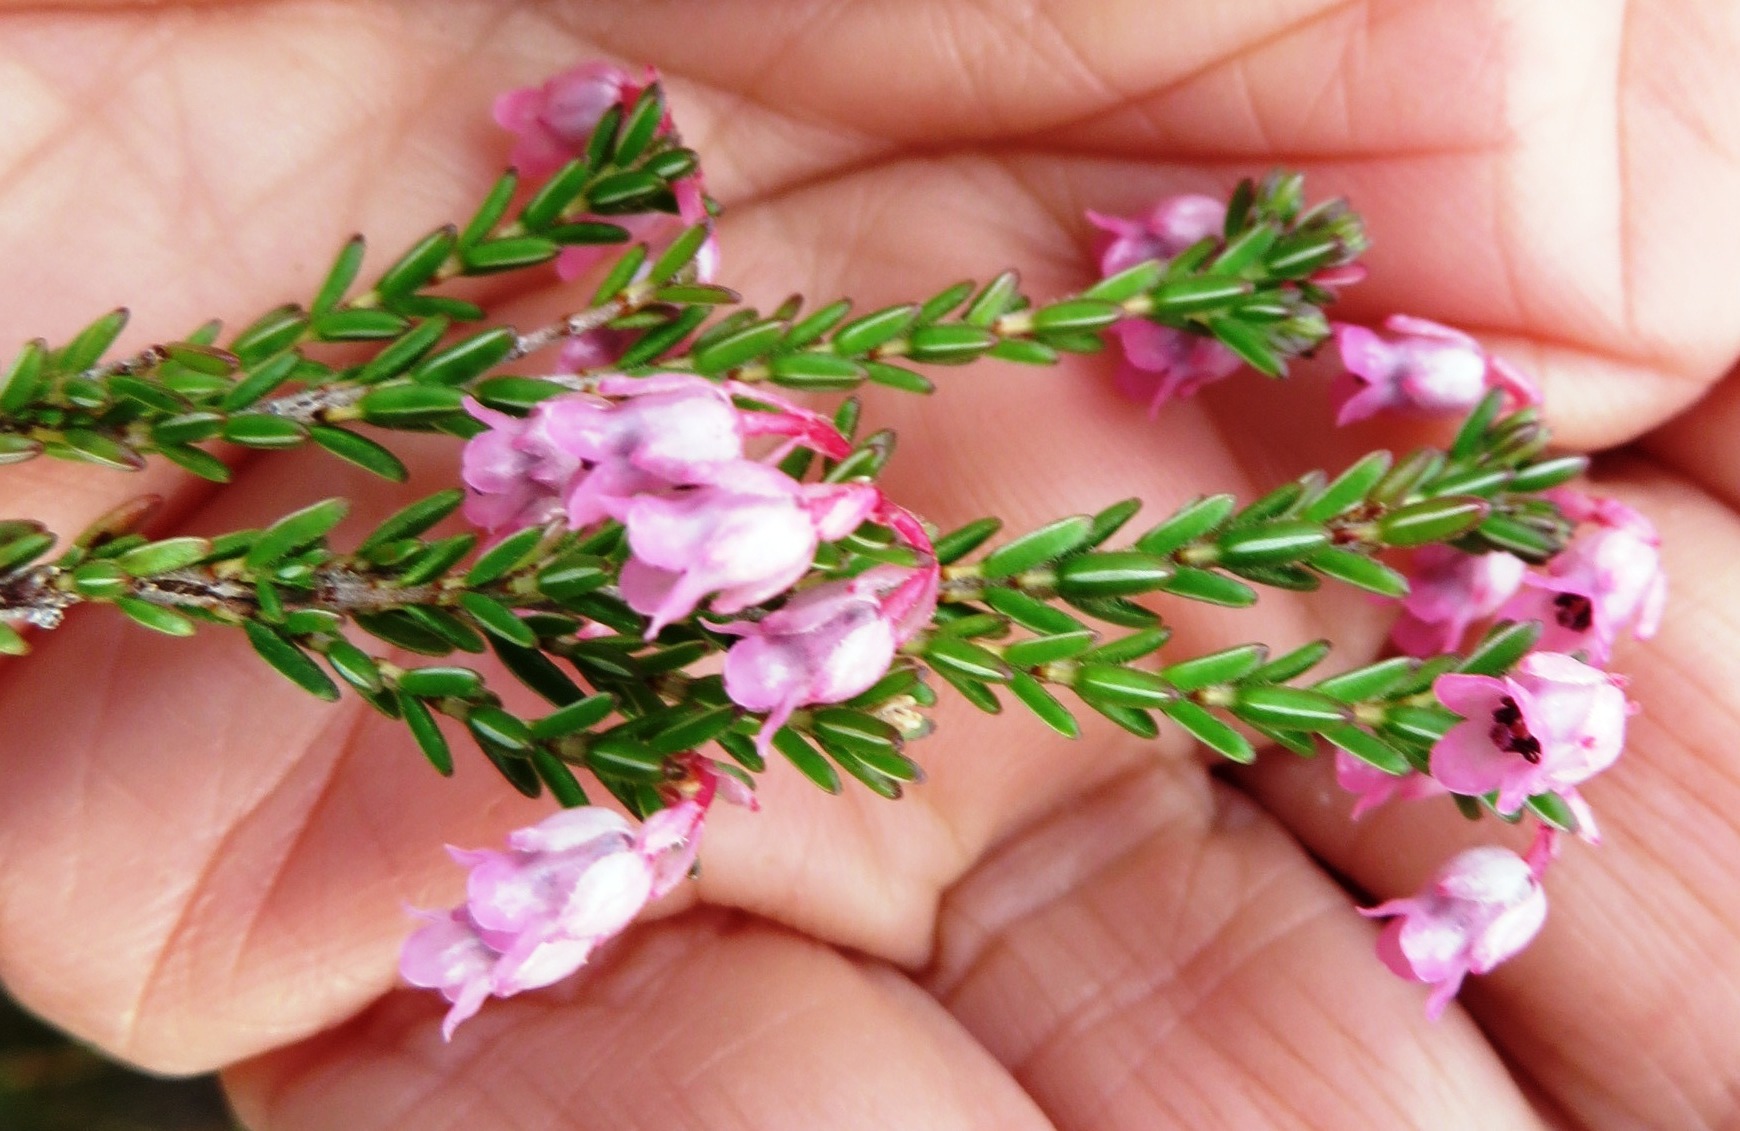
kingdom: Plantae
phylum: Tracheophyta
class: Magnoliopsida
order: Ericales
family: Ericaceae
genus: Erica
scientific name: Erica brevifolia
